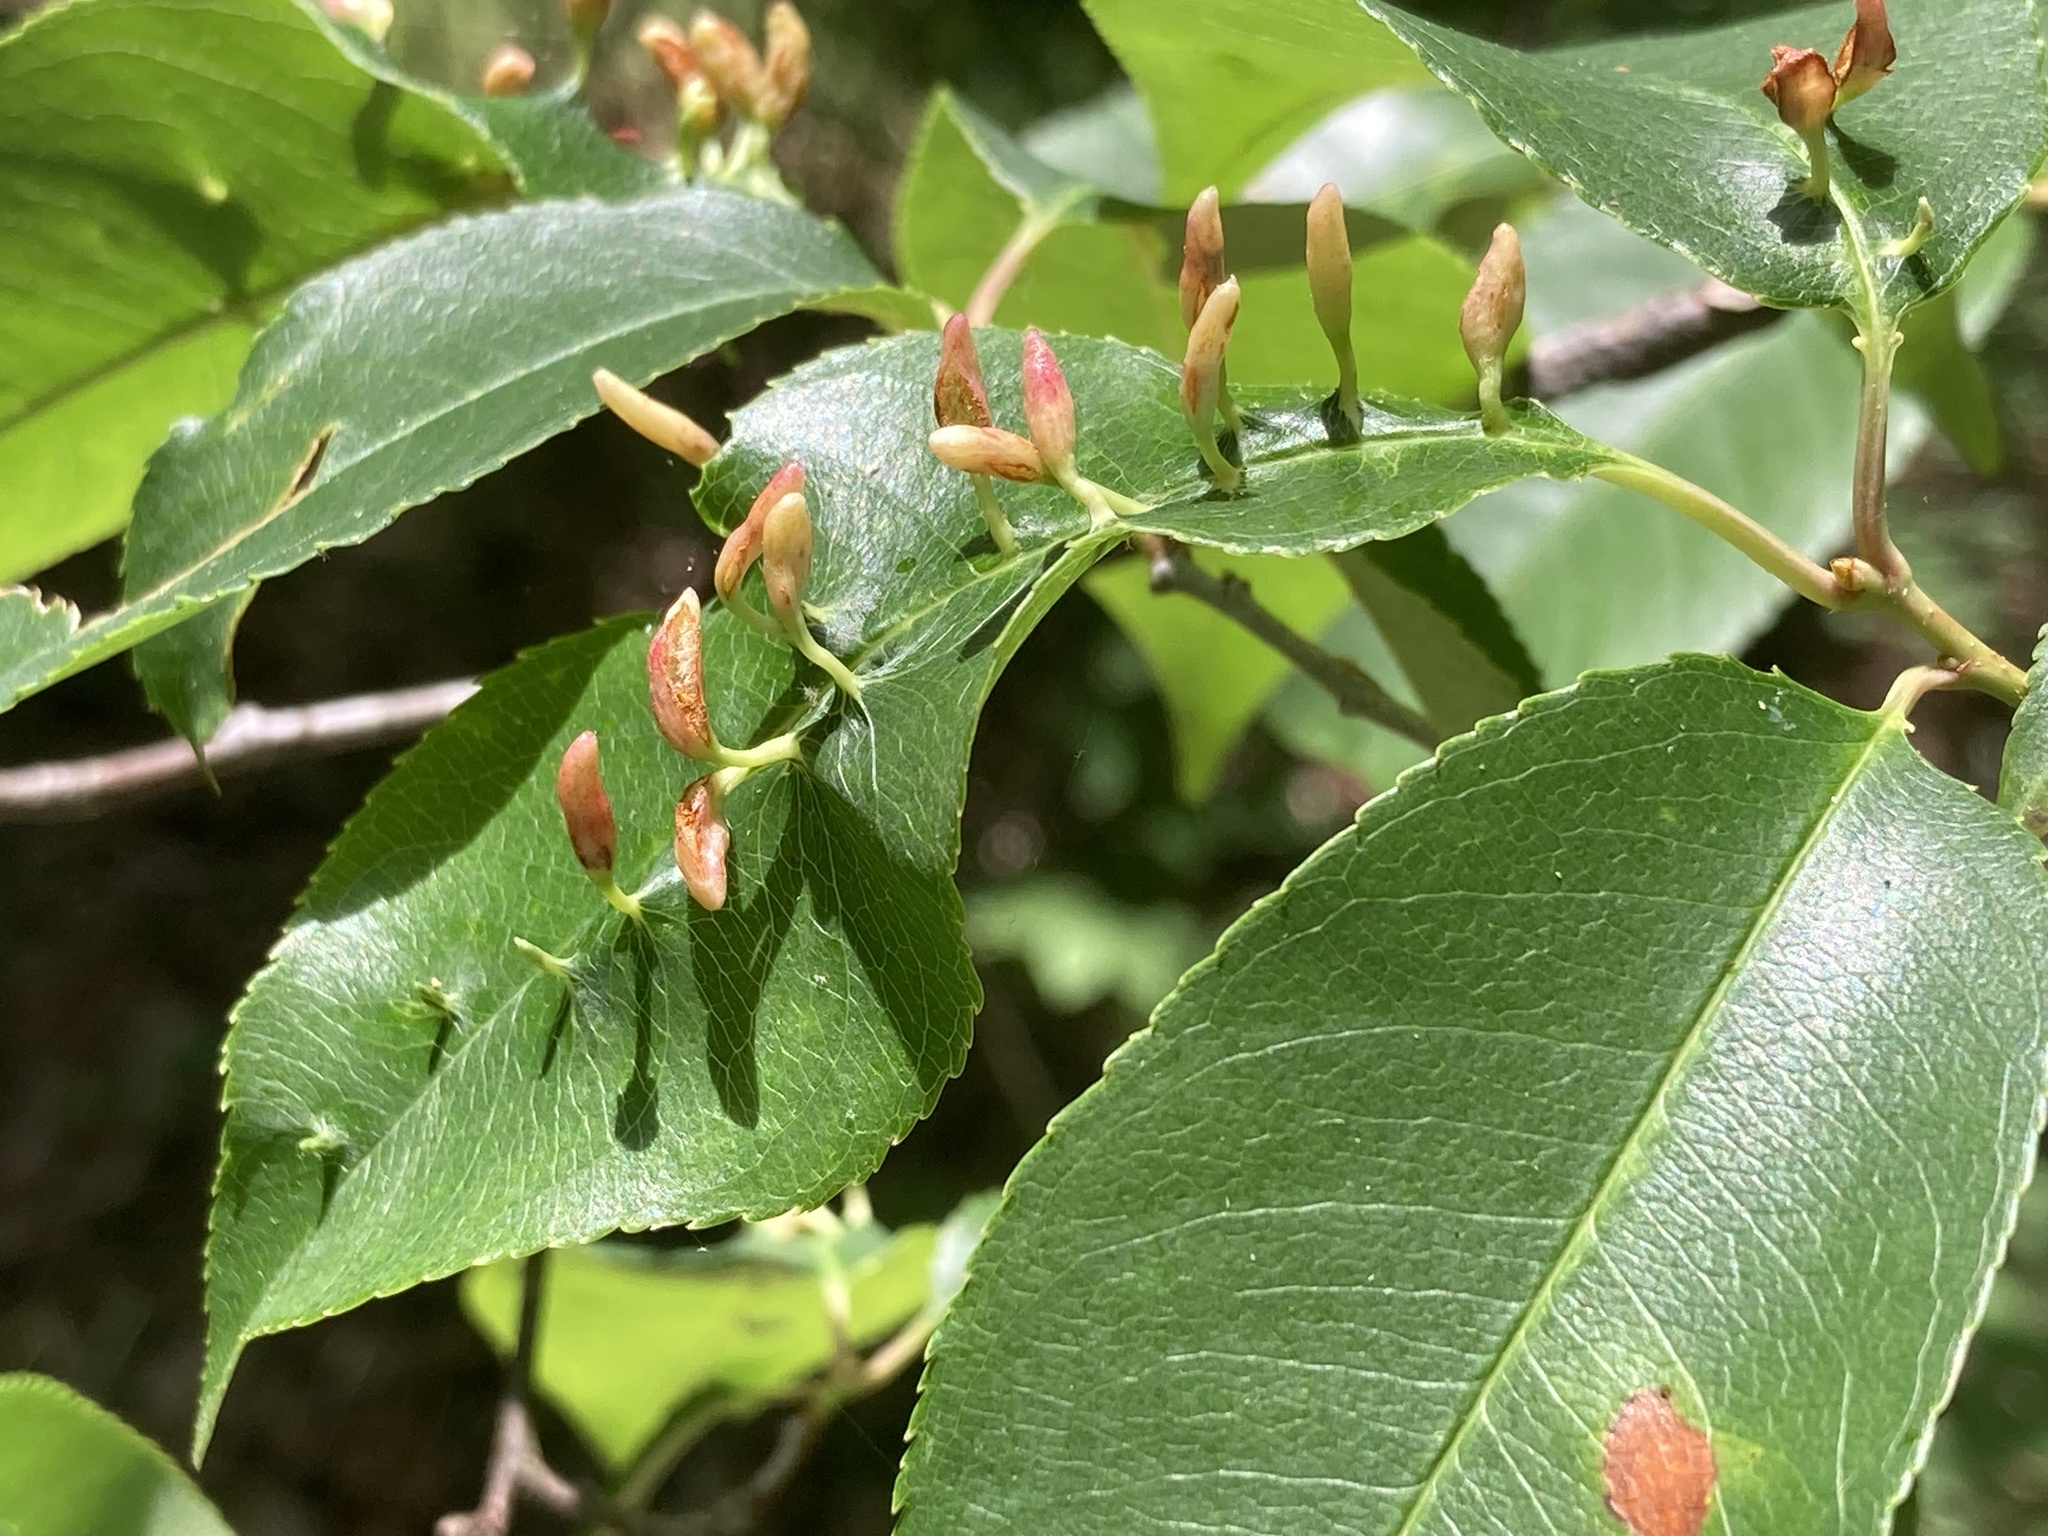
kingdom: Animalia
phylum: Arthropoda
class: Arachnida
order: Trombidiformes
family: Eriophyidae
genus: Eriophyes
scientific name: Eriophyes
